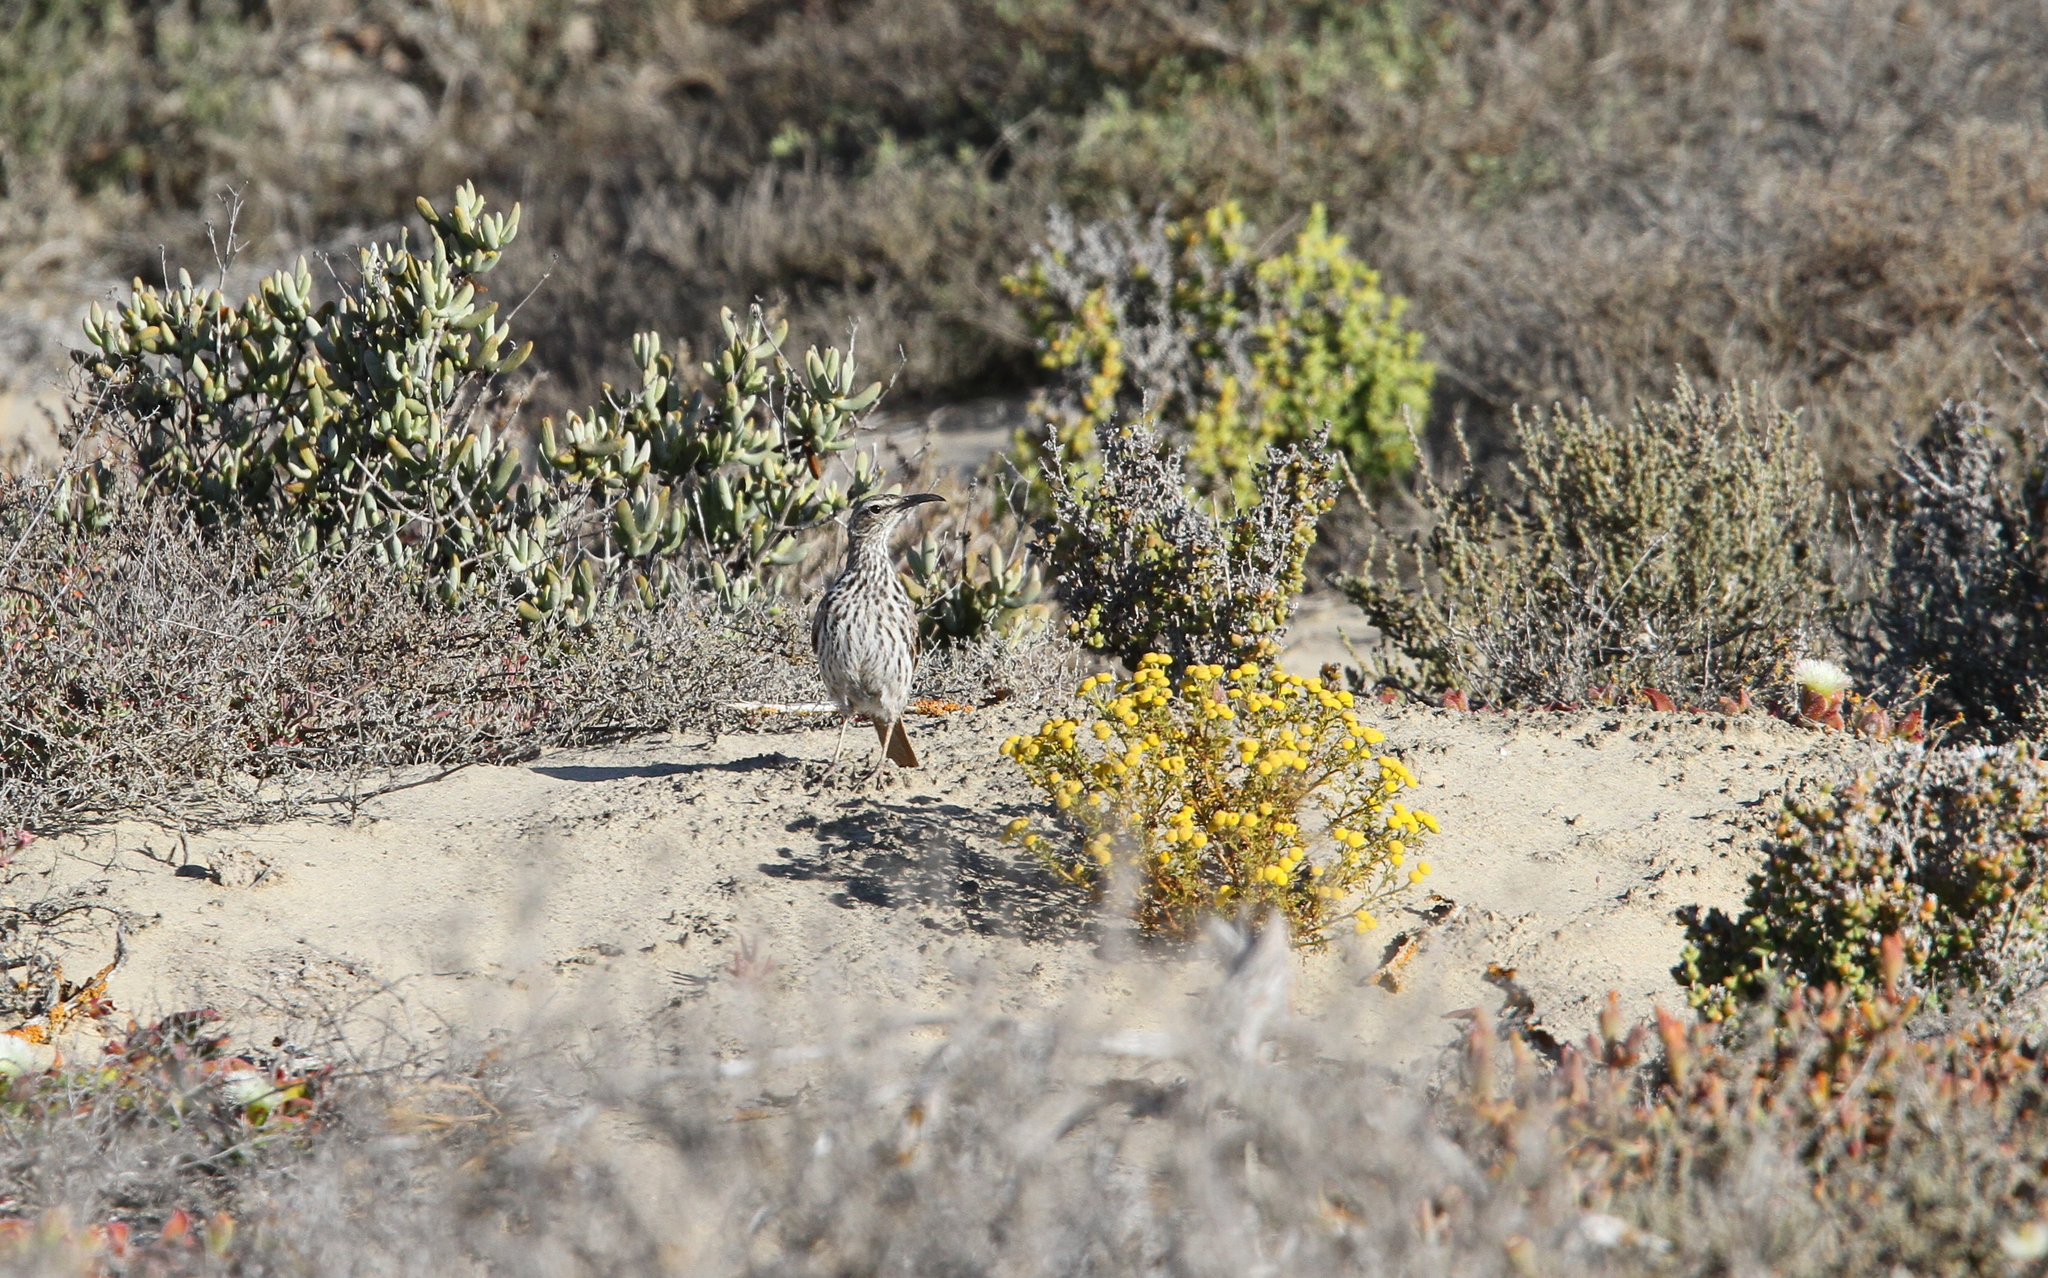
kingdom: Animalia
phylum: Chordata
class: Aves
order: Passeriformes
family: Alaudidae
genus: Certhilauda
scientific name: Certhilauda curvirostris
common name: Cape long-billed lark
